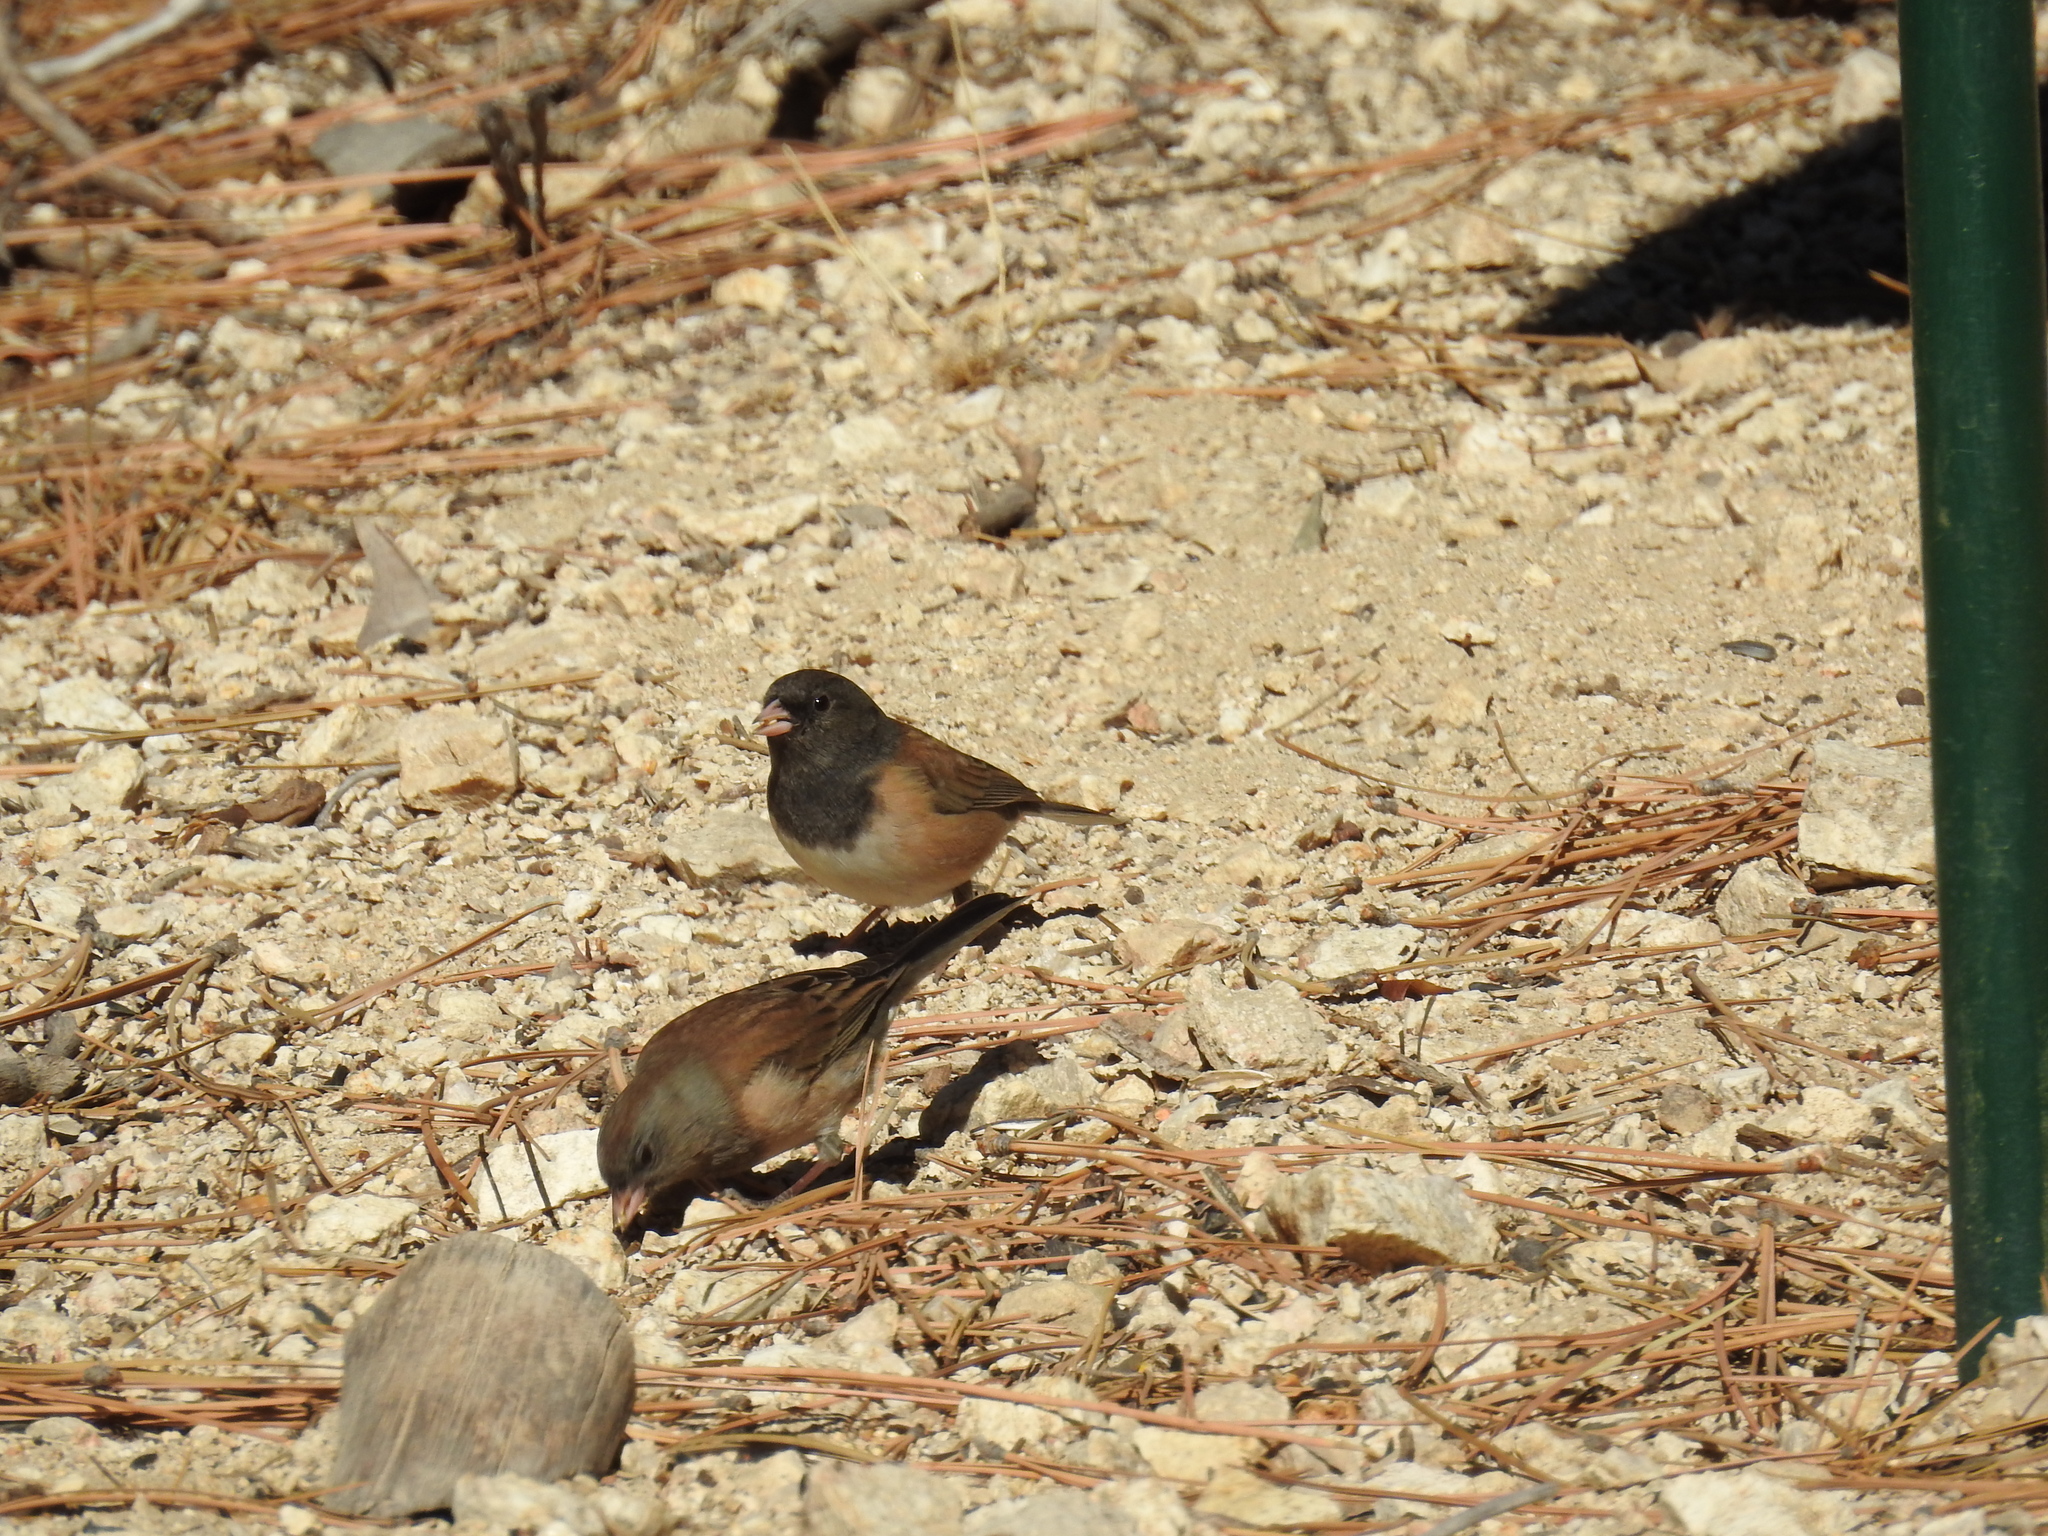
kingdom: Animalia
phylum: Chordata
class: Aves
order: Passeriformes
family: Passerellidae
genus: Junco
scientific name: Junco hyemalis
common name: Dark-eyed junco
